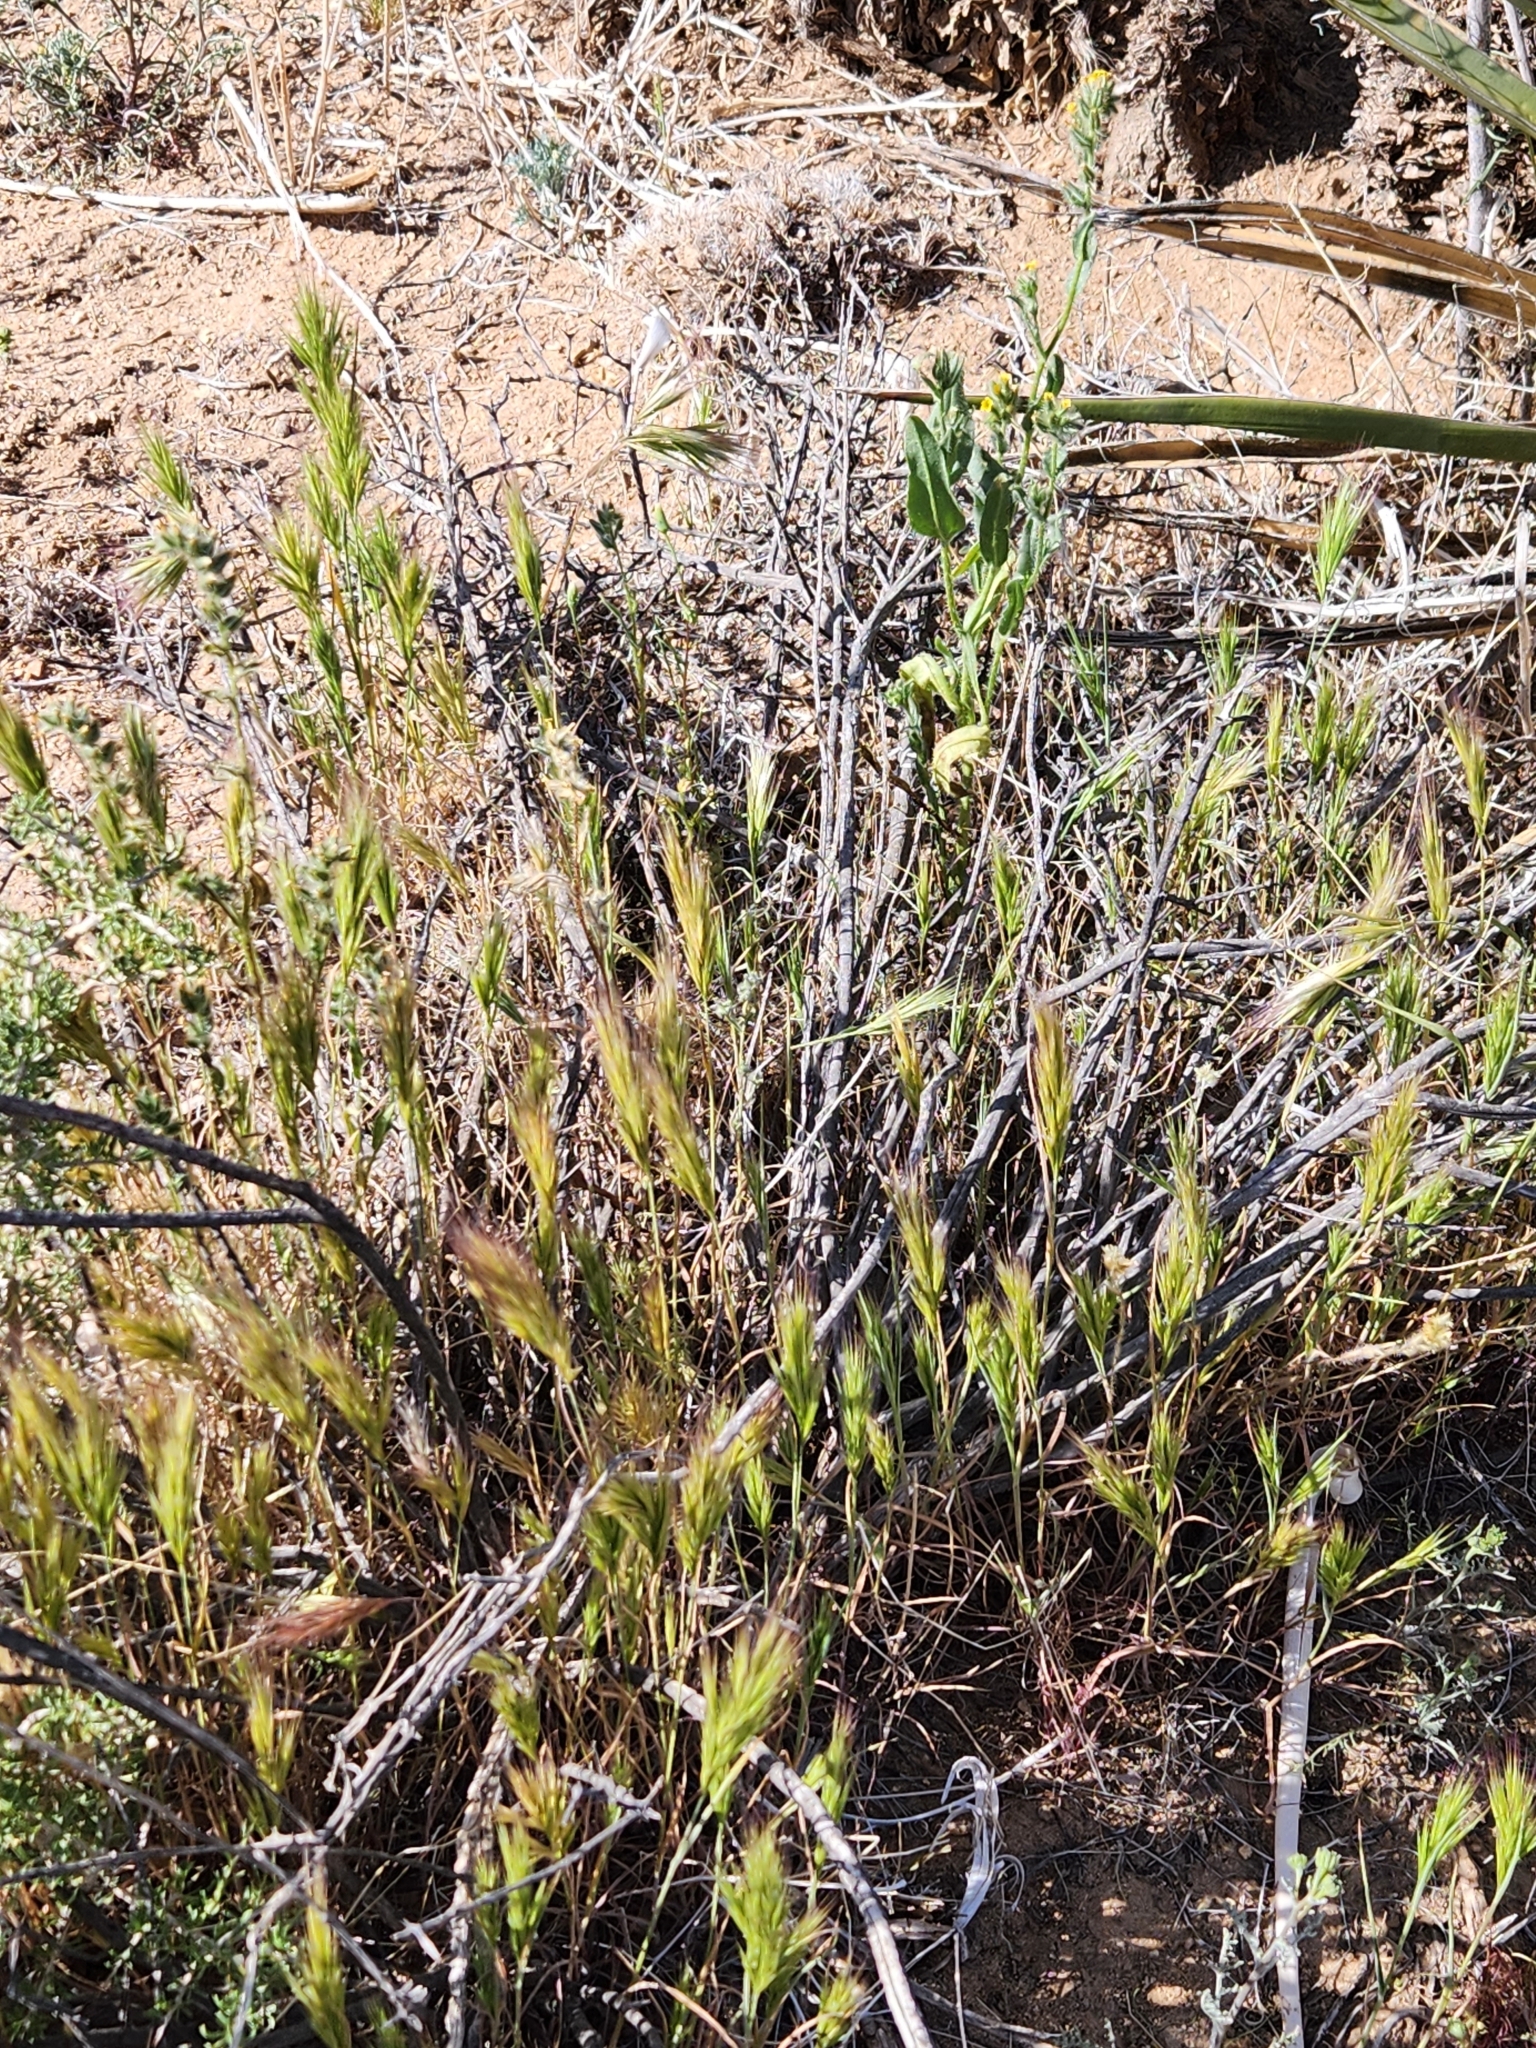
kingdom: Plantae
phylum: Tracheophyta
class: Liliopsida
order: Poales
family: Poaceae
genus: Bromus
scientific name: Bromus rubens
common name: Red brome
